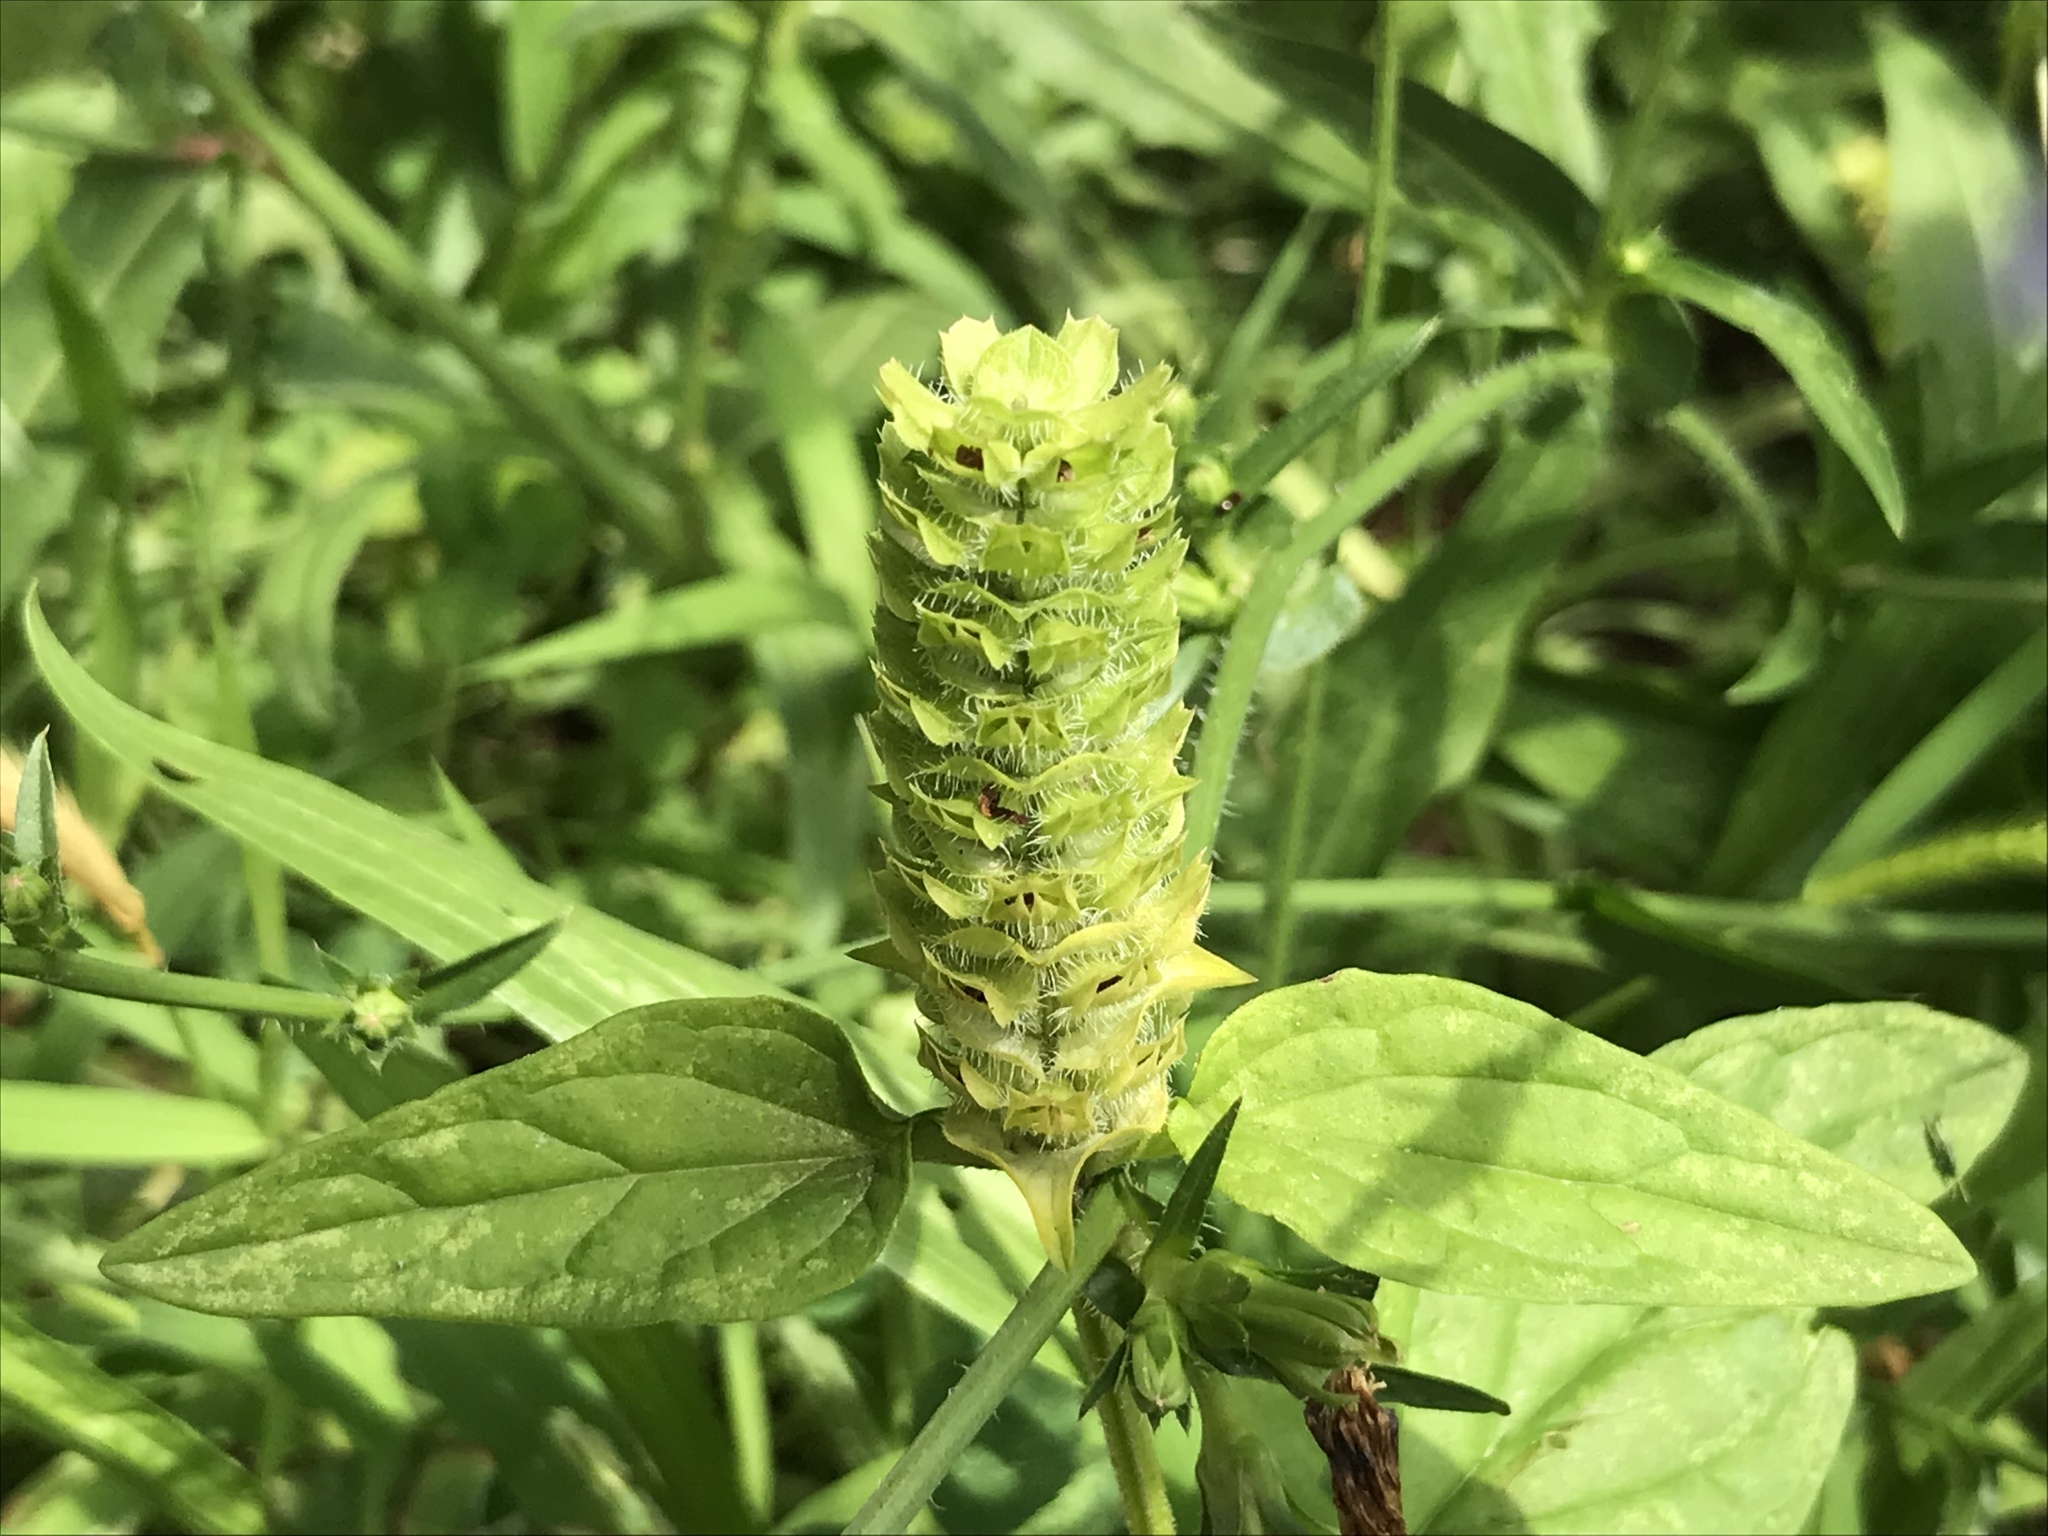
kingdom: Plantae
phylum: Tracheophyta
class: Magnoliopsida
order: Lamiales
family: Lamiaceae
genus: Prunella
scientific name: Prunella vulgaris
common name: Heal-all
